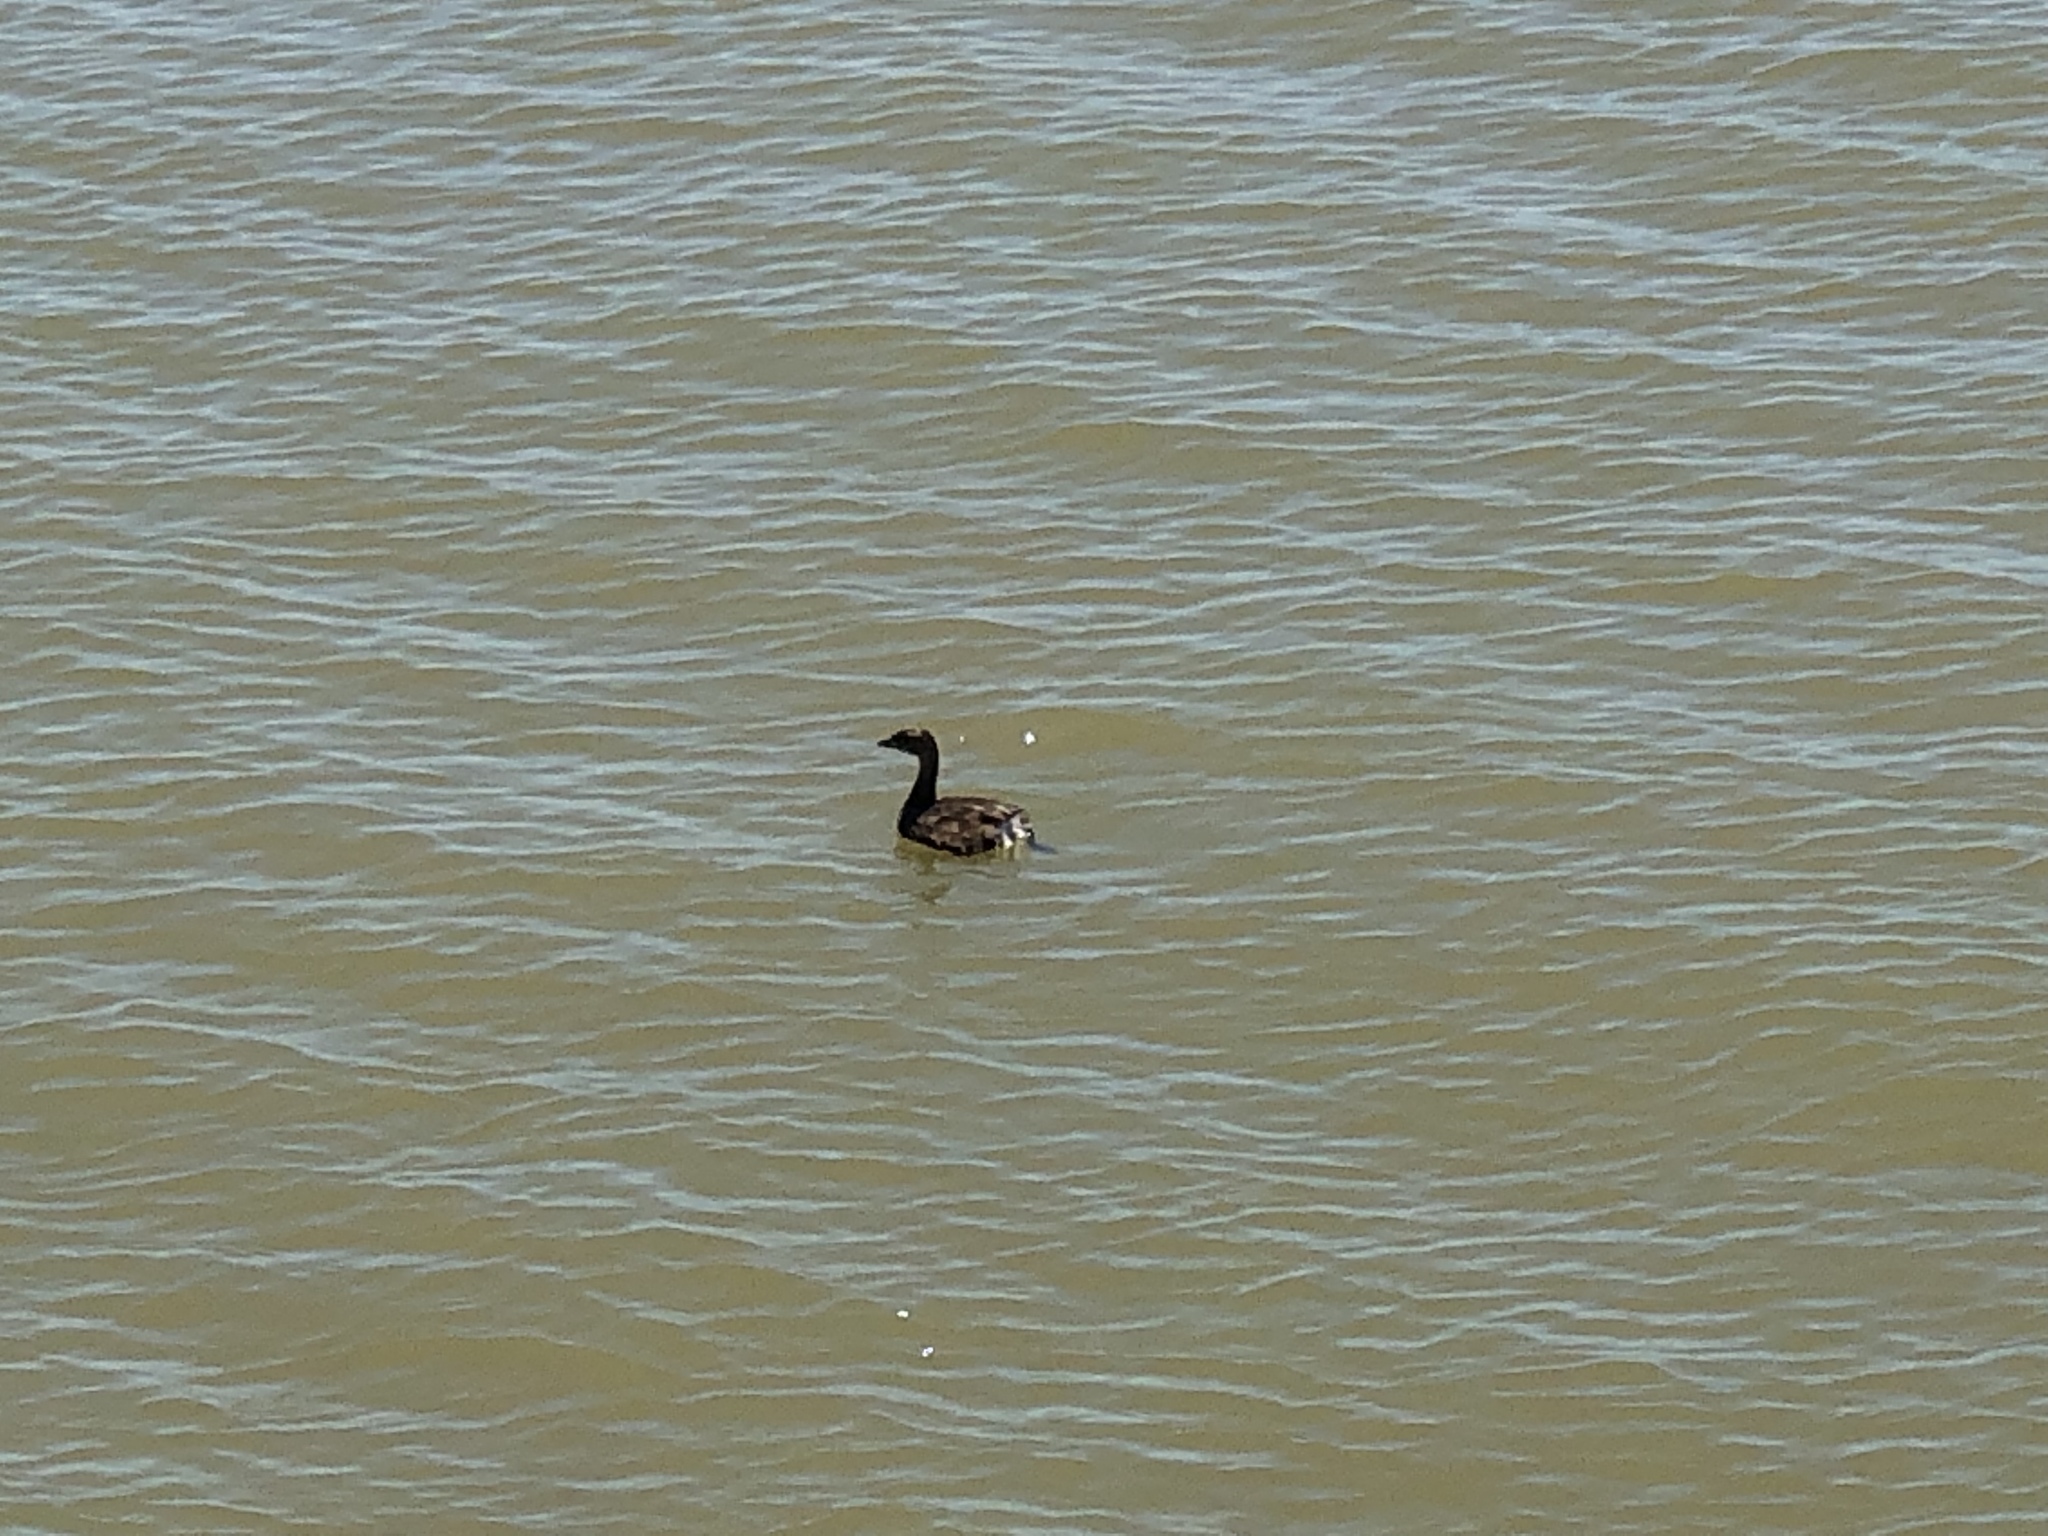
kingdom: Animalia
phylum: Chordata
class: Aves
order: Podicipediformes
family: Podicipedidae
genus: Podilymbus
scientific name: Podilymbus podiceps
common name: Pied-billed grebe
